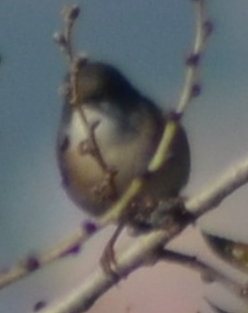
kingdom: Animalia
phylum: Chordata
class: Aves
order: Passeriformes
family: Sylviidae
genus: Curruca
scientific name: Curruca melanocephala
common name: Sardinian warbler
